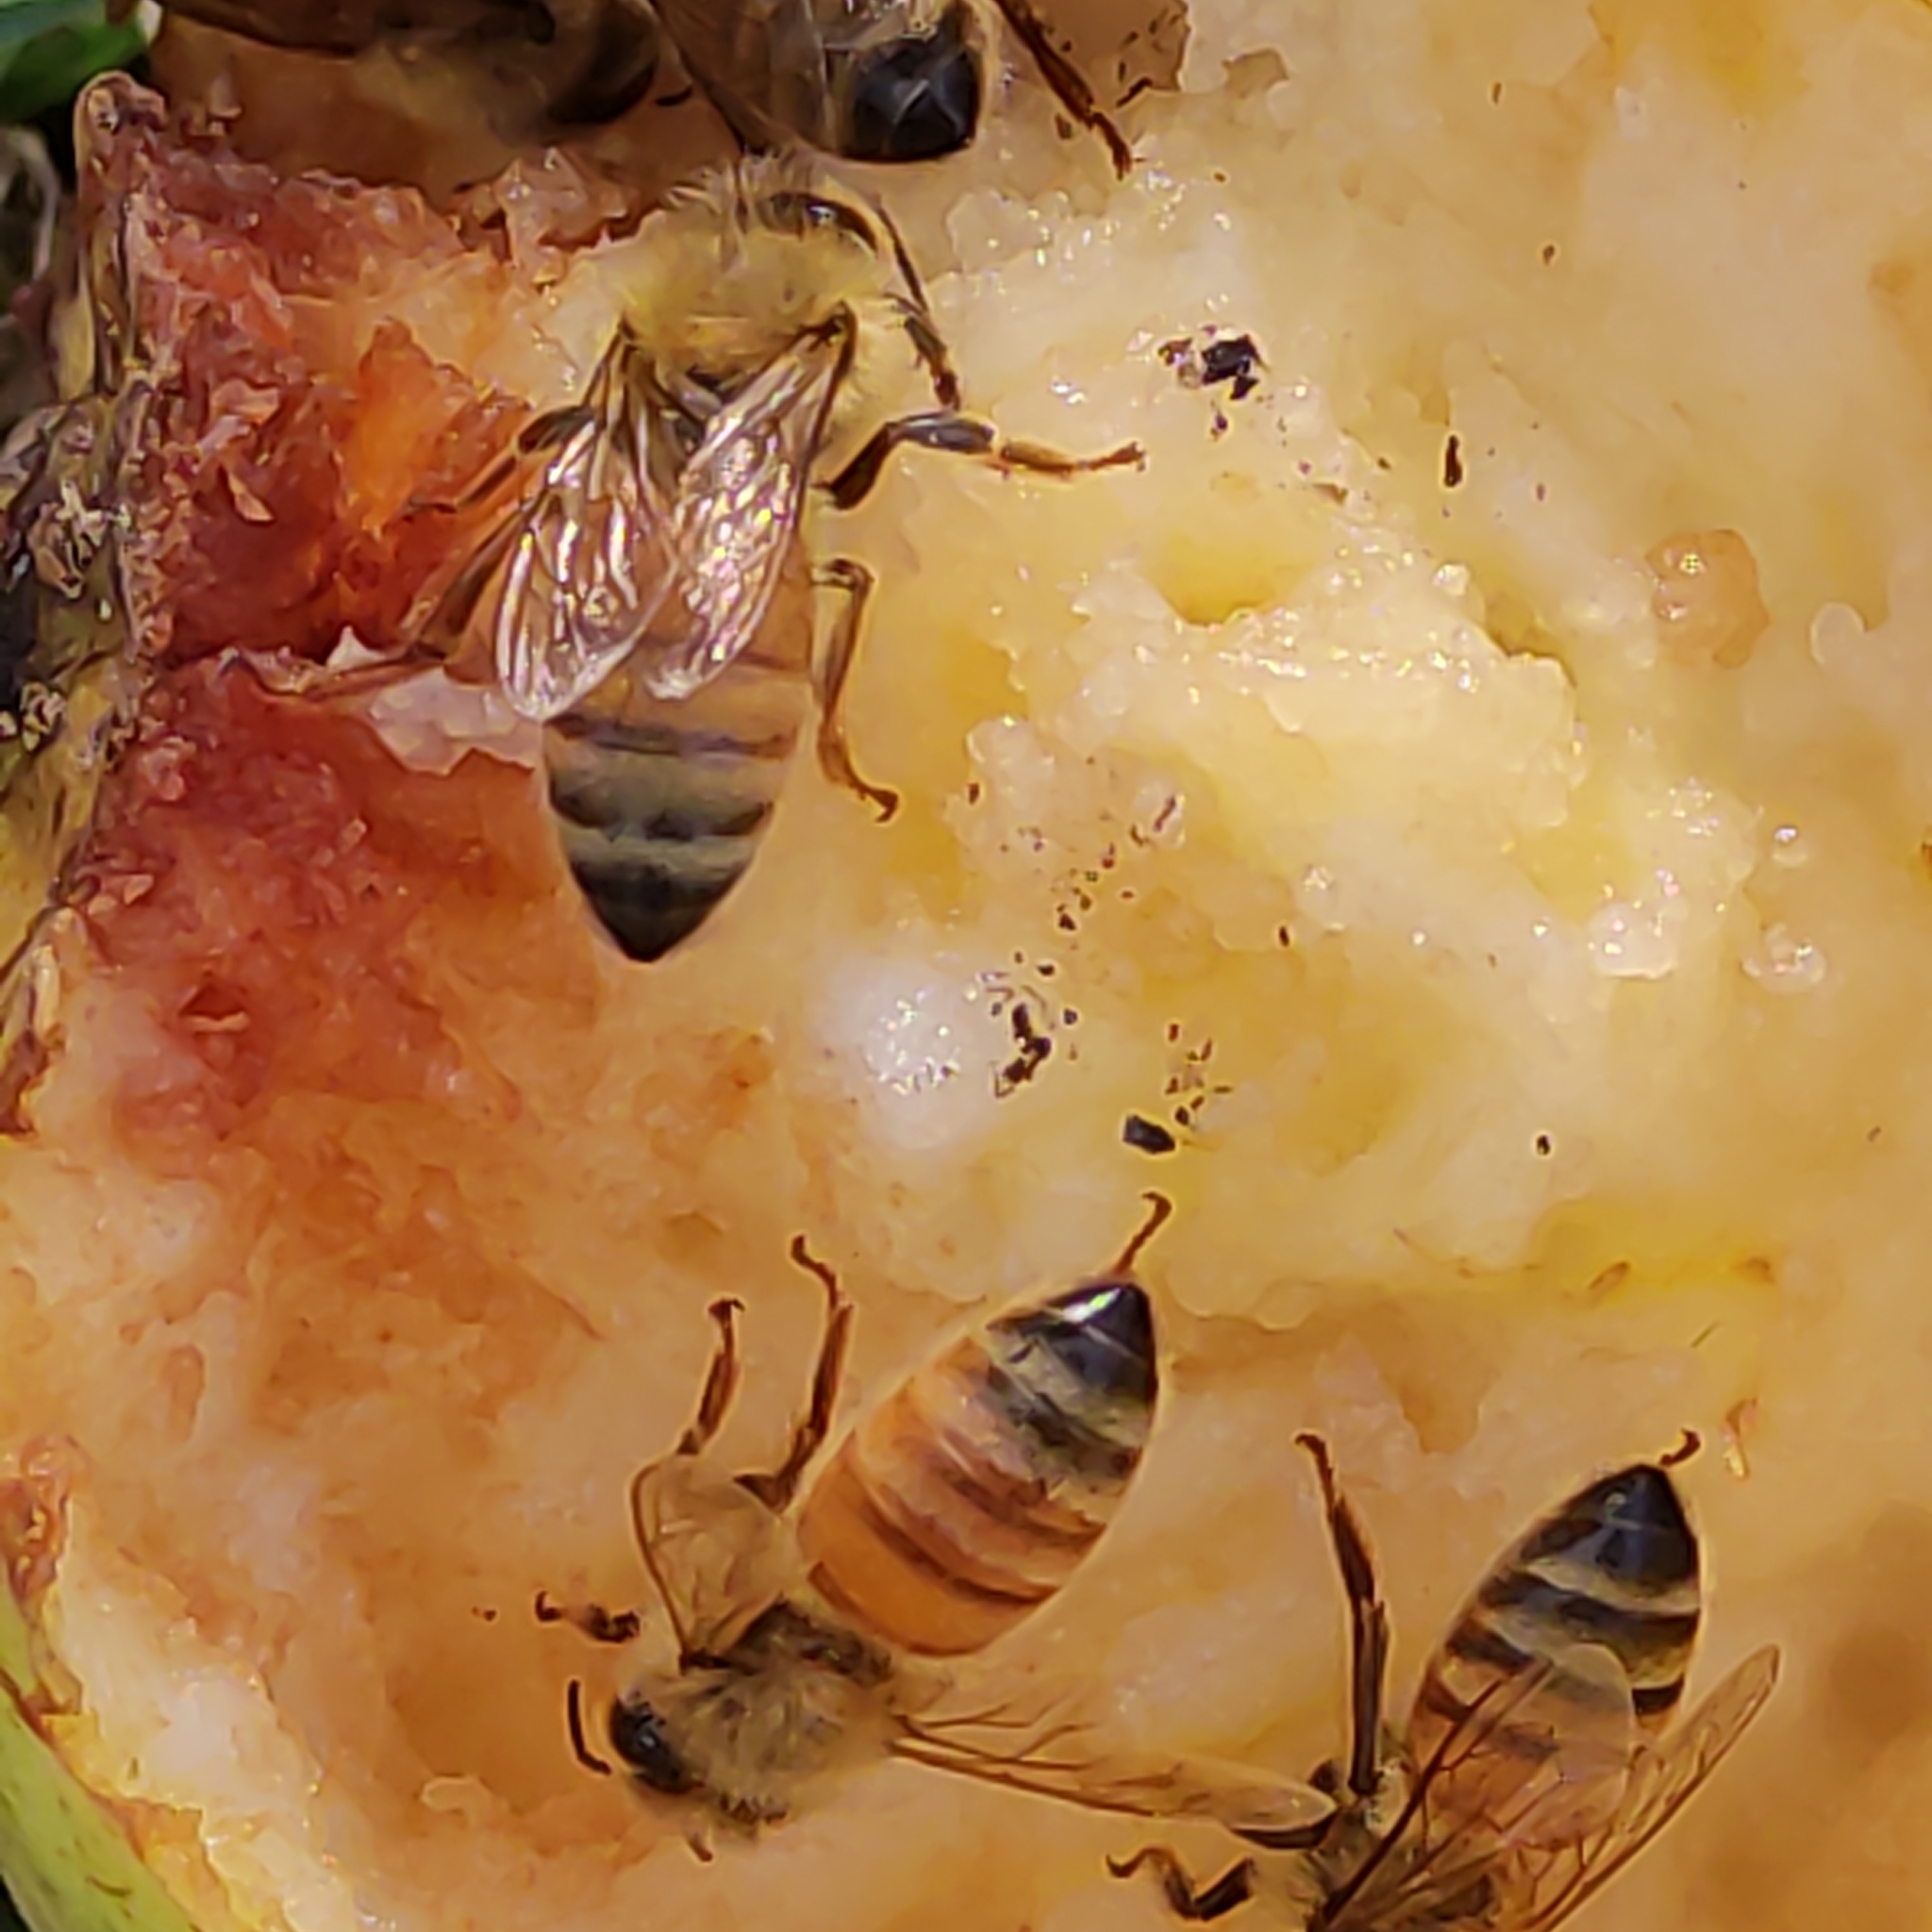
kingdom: Animalia
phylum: Arthropoda
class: Insecta
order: Hymenoptera
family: Apidae
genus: Apis
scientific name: Apis mellifera
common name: Honey bee
